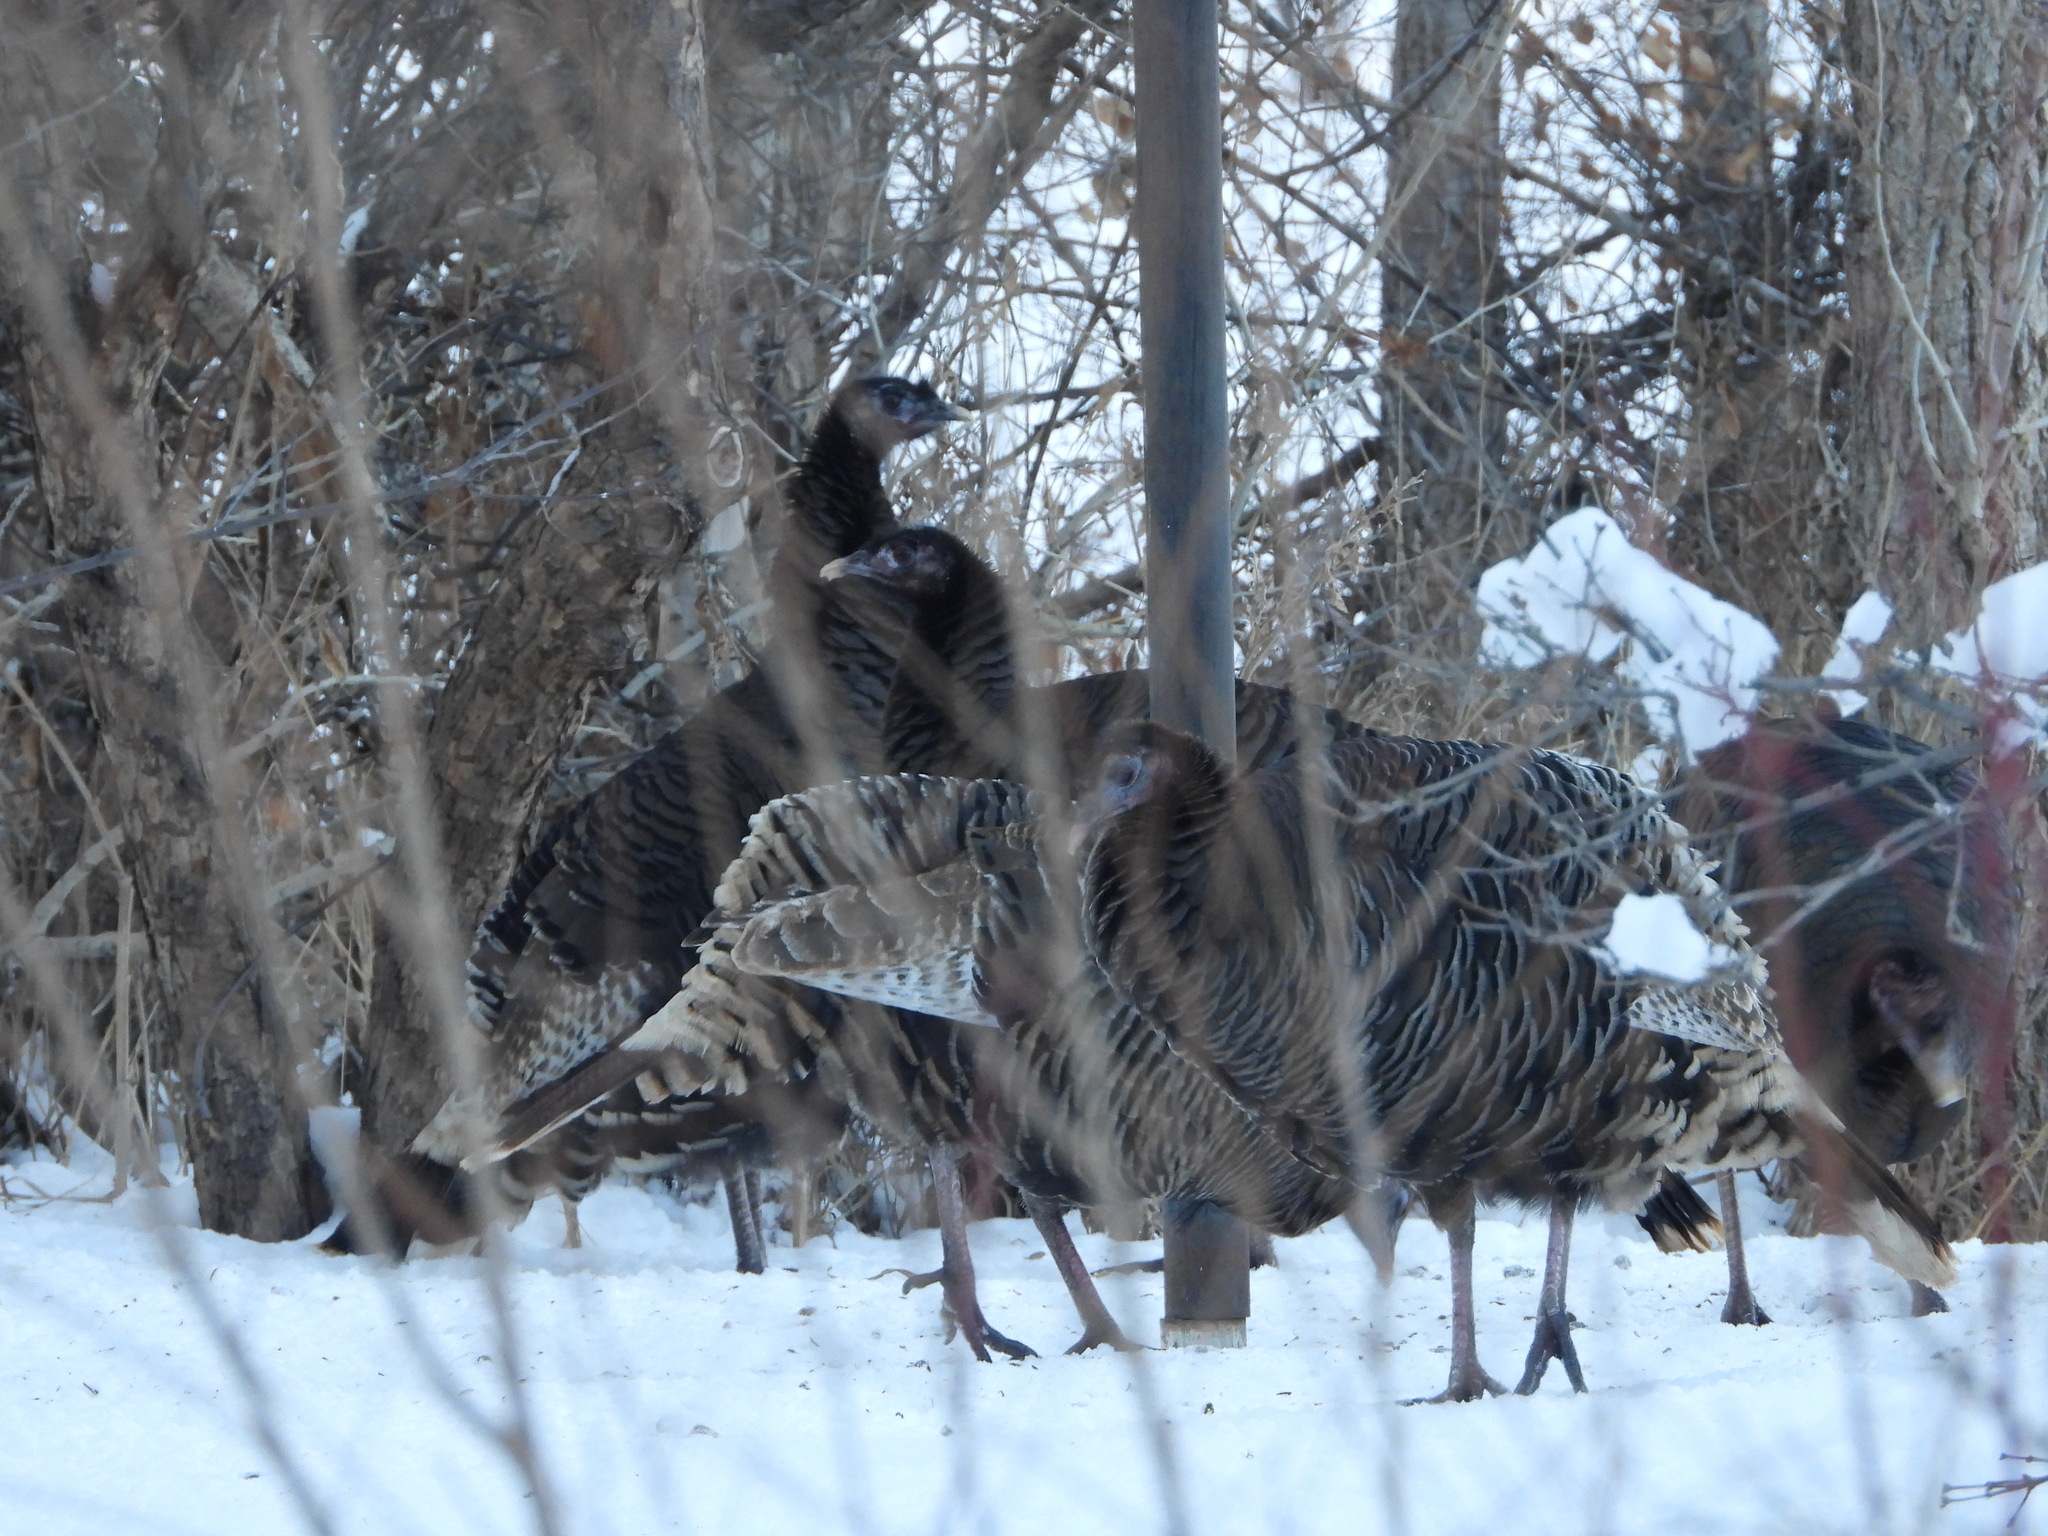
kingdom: Animalia
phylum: Chordata
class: Aves
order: Galliformes
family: Phasianidae
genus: Meleagris
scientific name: Meleagris gallopavo
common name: Wild turkey
